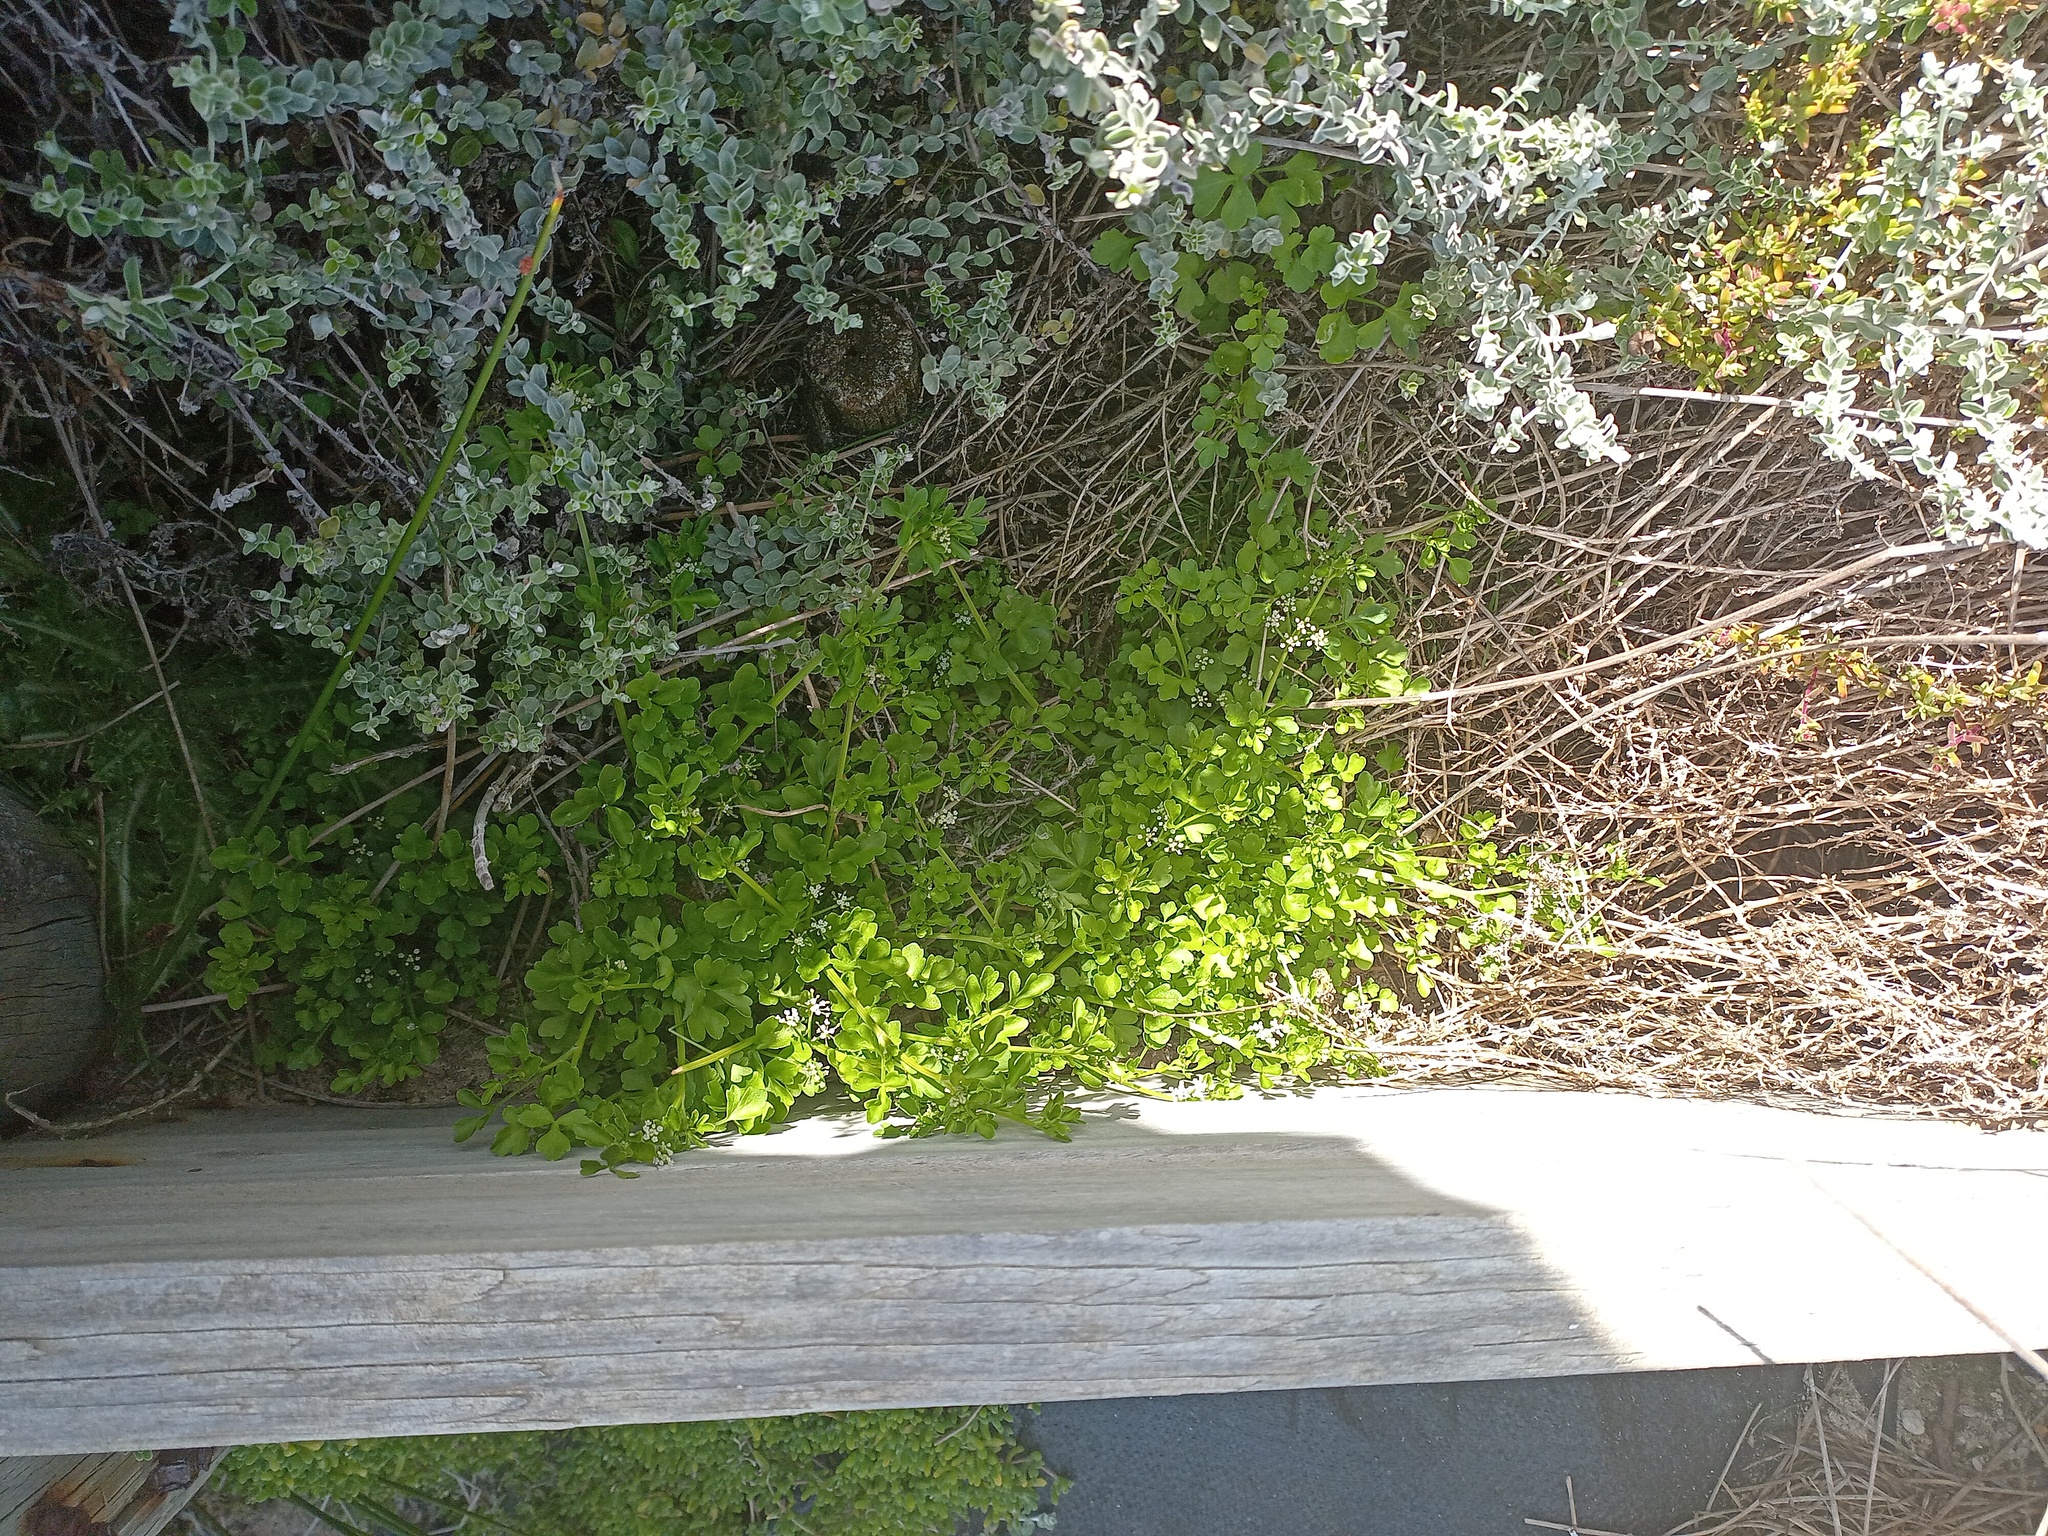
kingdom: Plantae
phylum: Tracheophyta
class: Magnoliopsida
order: Apiales
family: Apiaceae
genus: Apium
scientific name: Apium decumbens
